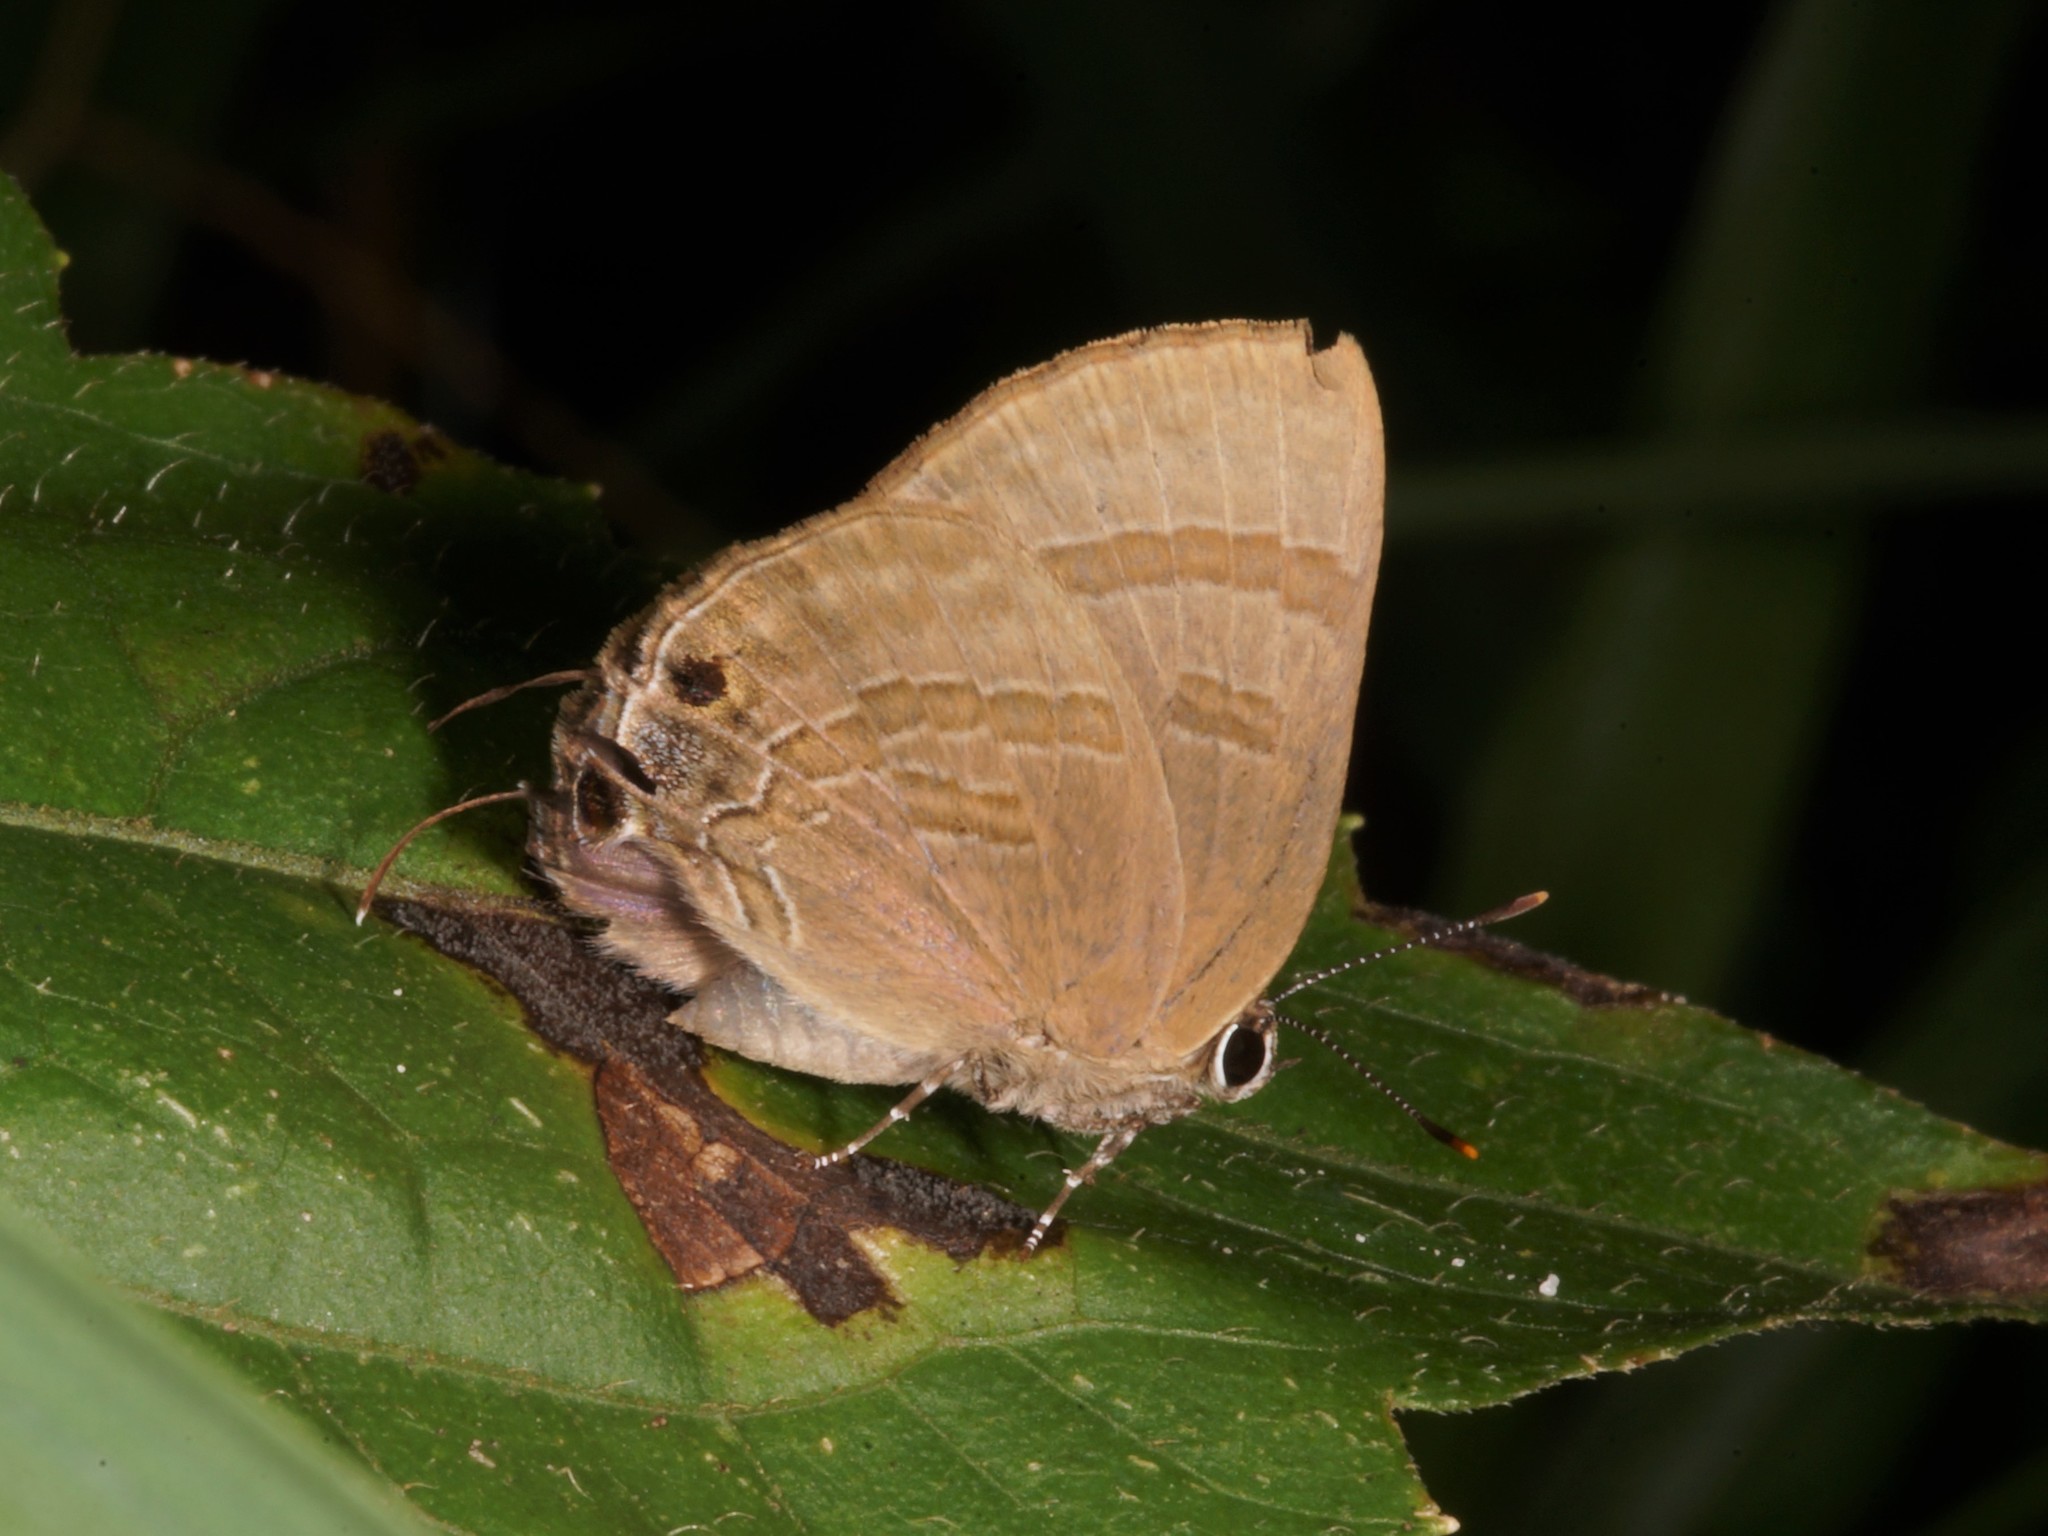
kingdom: Animalia
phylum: Arthropoda
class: Insecta
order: Lepidoptera
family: Lycaenidae
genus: Rapala
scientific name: Rapala varuna
